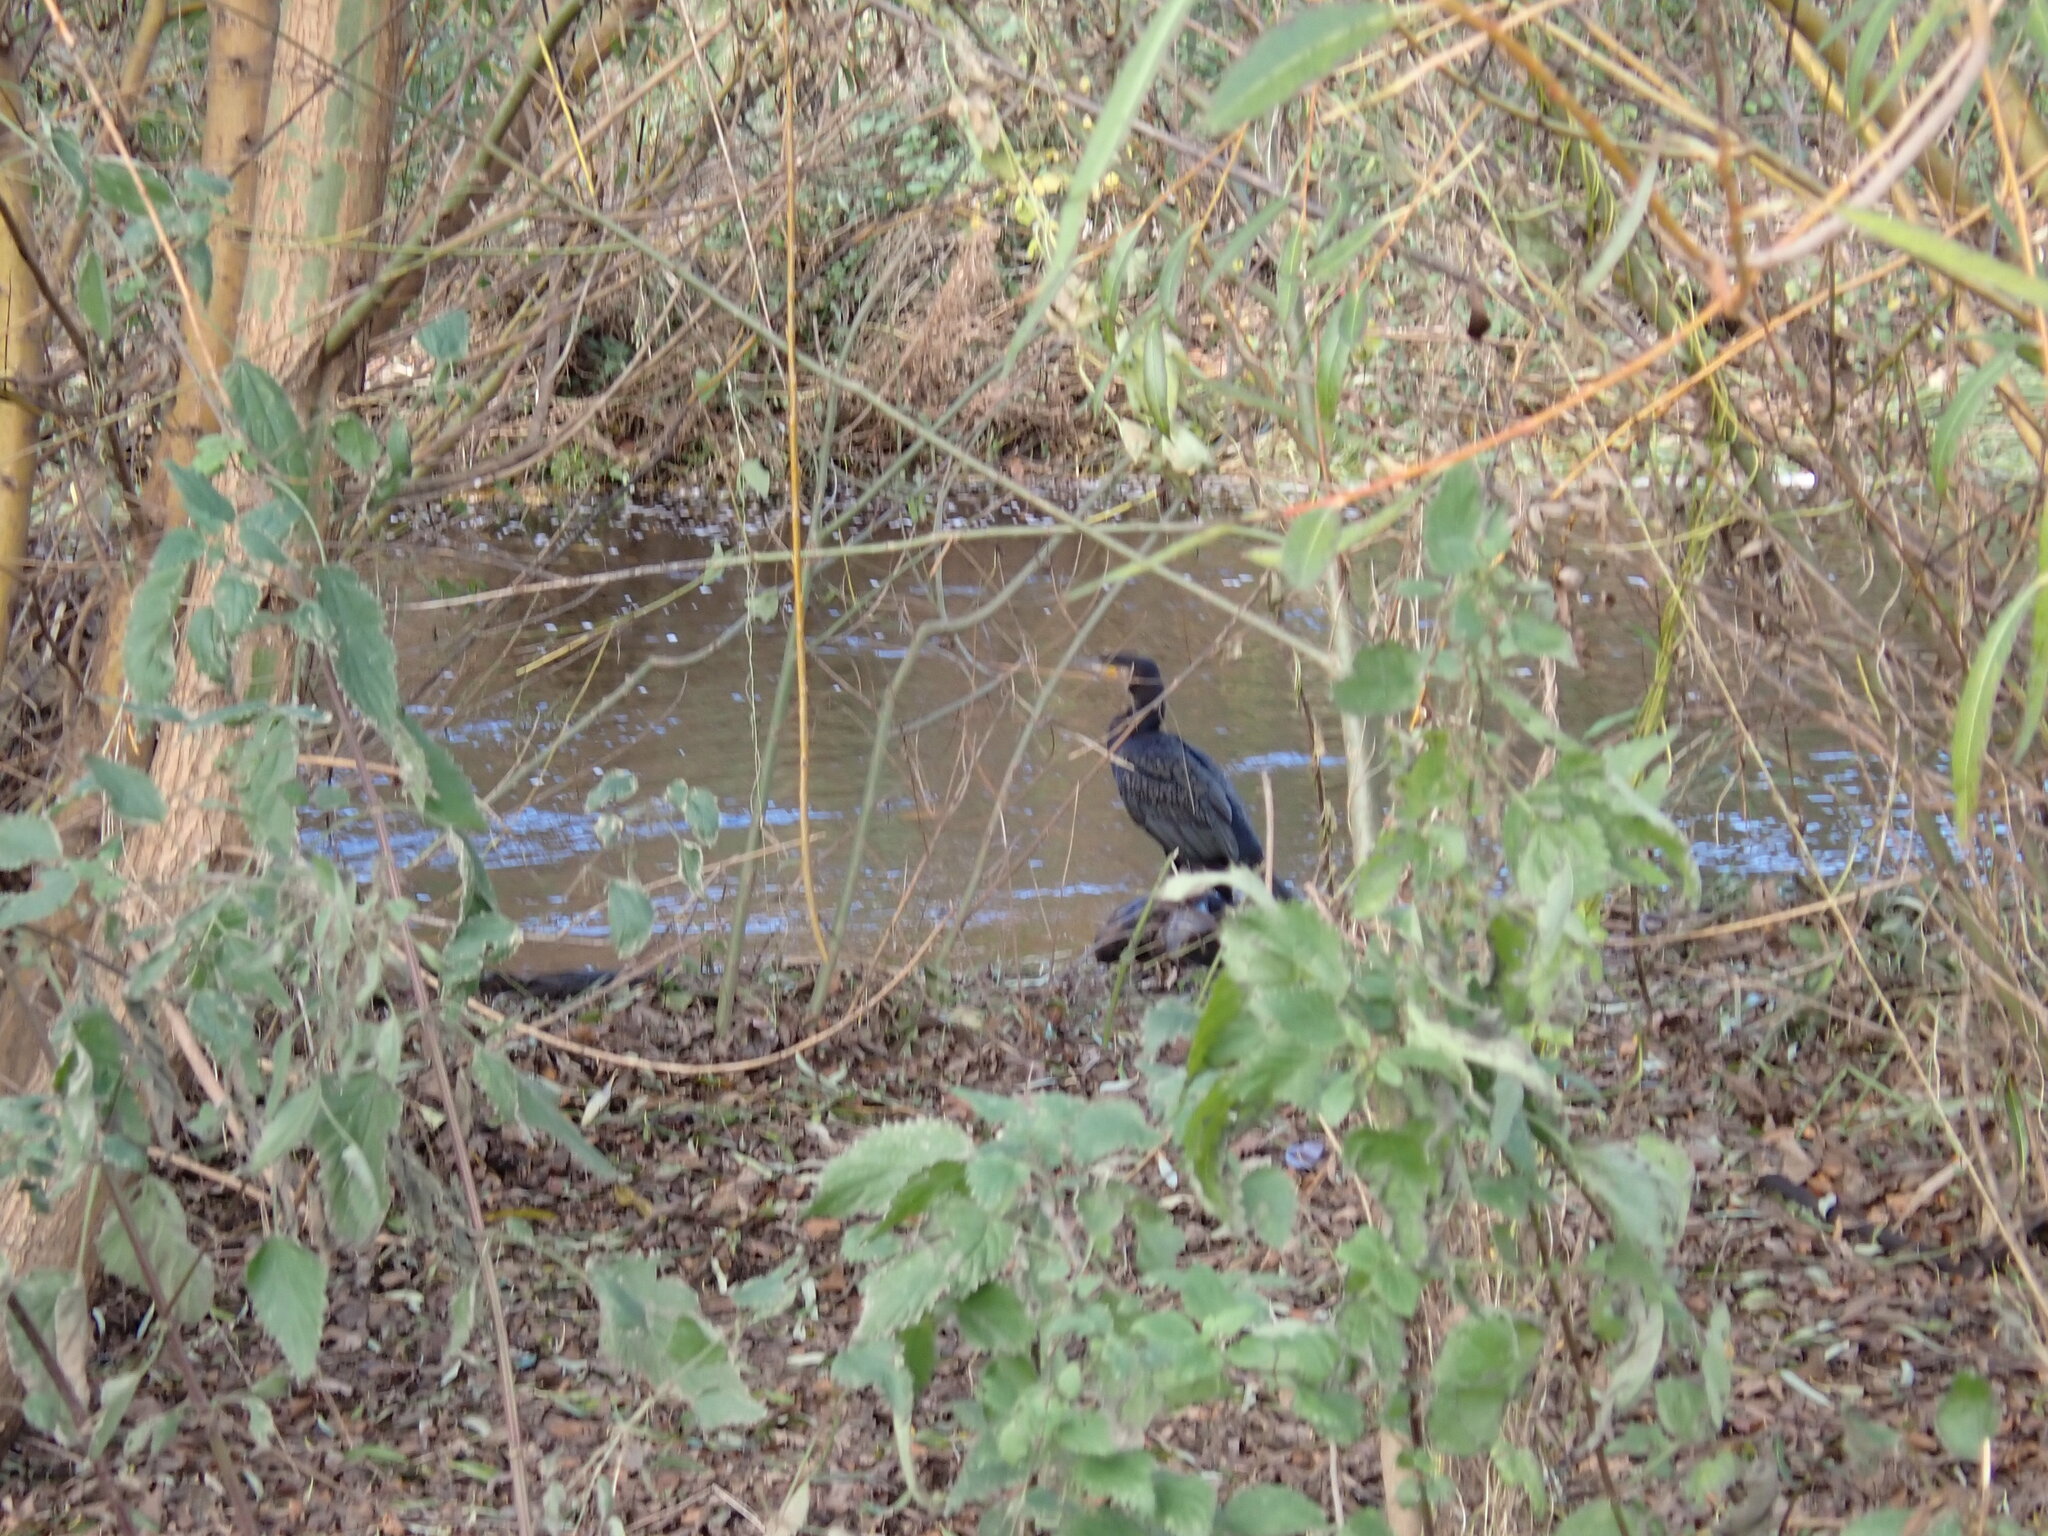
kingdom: Animalia
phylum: Chordata
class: Aves
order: Suliformes
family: Phalacrocoracidae
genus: Phalacrocorax
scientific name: Phalacrocorax carbo
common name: Great cormorant
